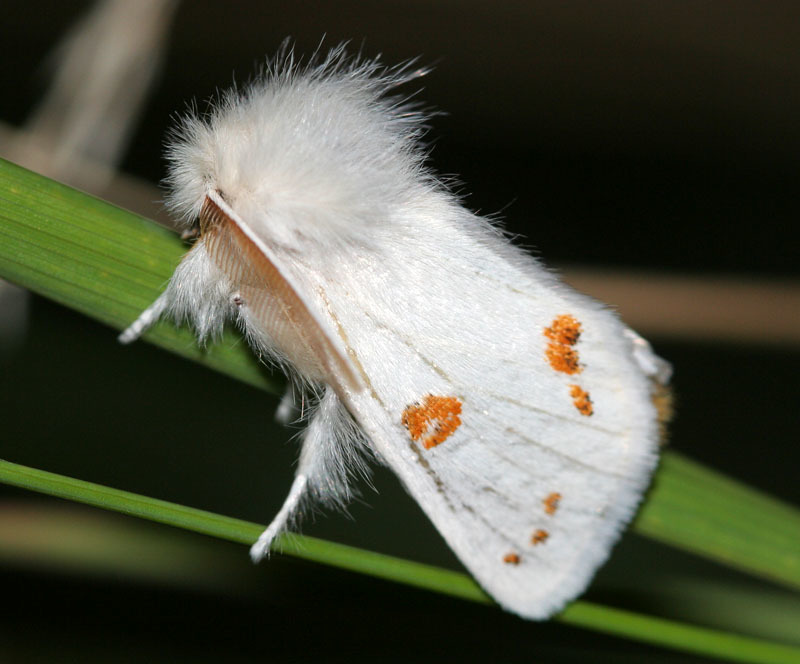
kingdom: Animalia
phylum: Arthropoda
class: Insecta
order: Lepidoptera
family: Erebidae
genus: Euproctis
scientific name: Euproctis kargalika
